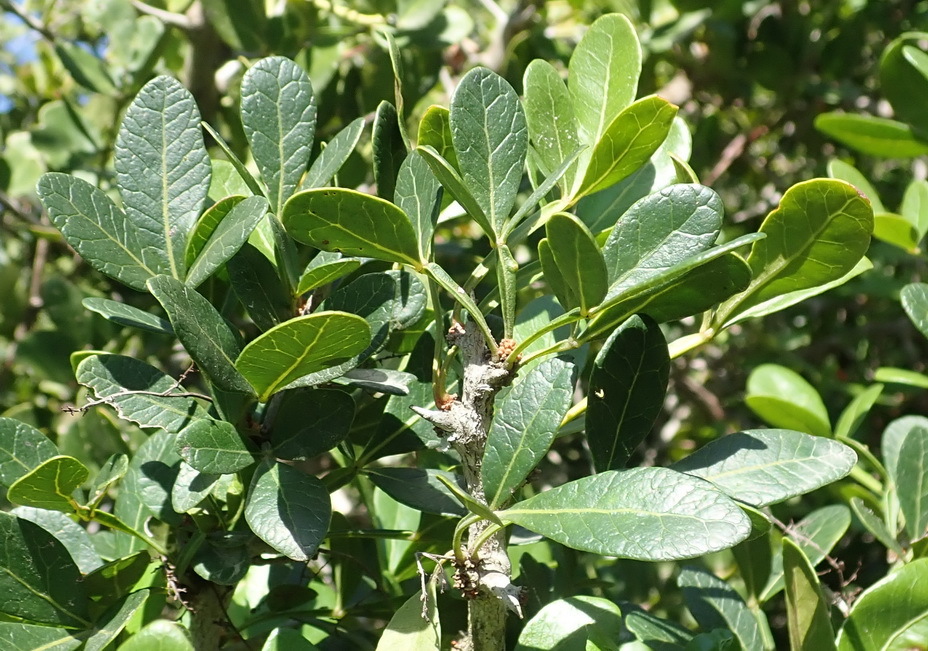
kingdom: Plantae
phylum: Tracheophyta
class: Magnoliopsida
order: Sapindales
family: Anacardiaceae
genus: Searsia
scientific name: Searsia pterota
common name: Winged currant
